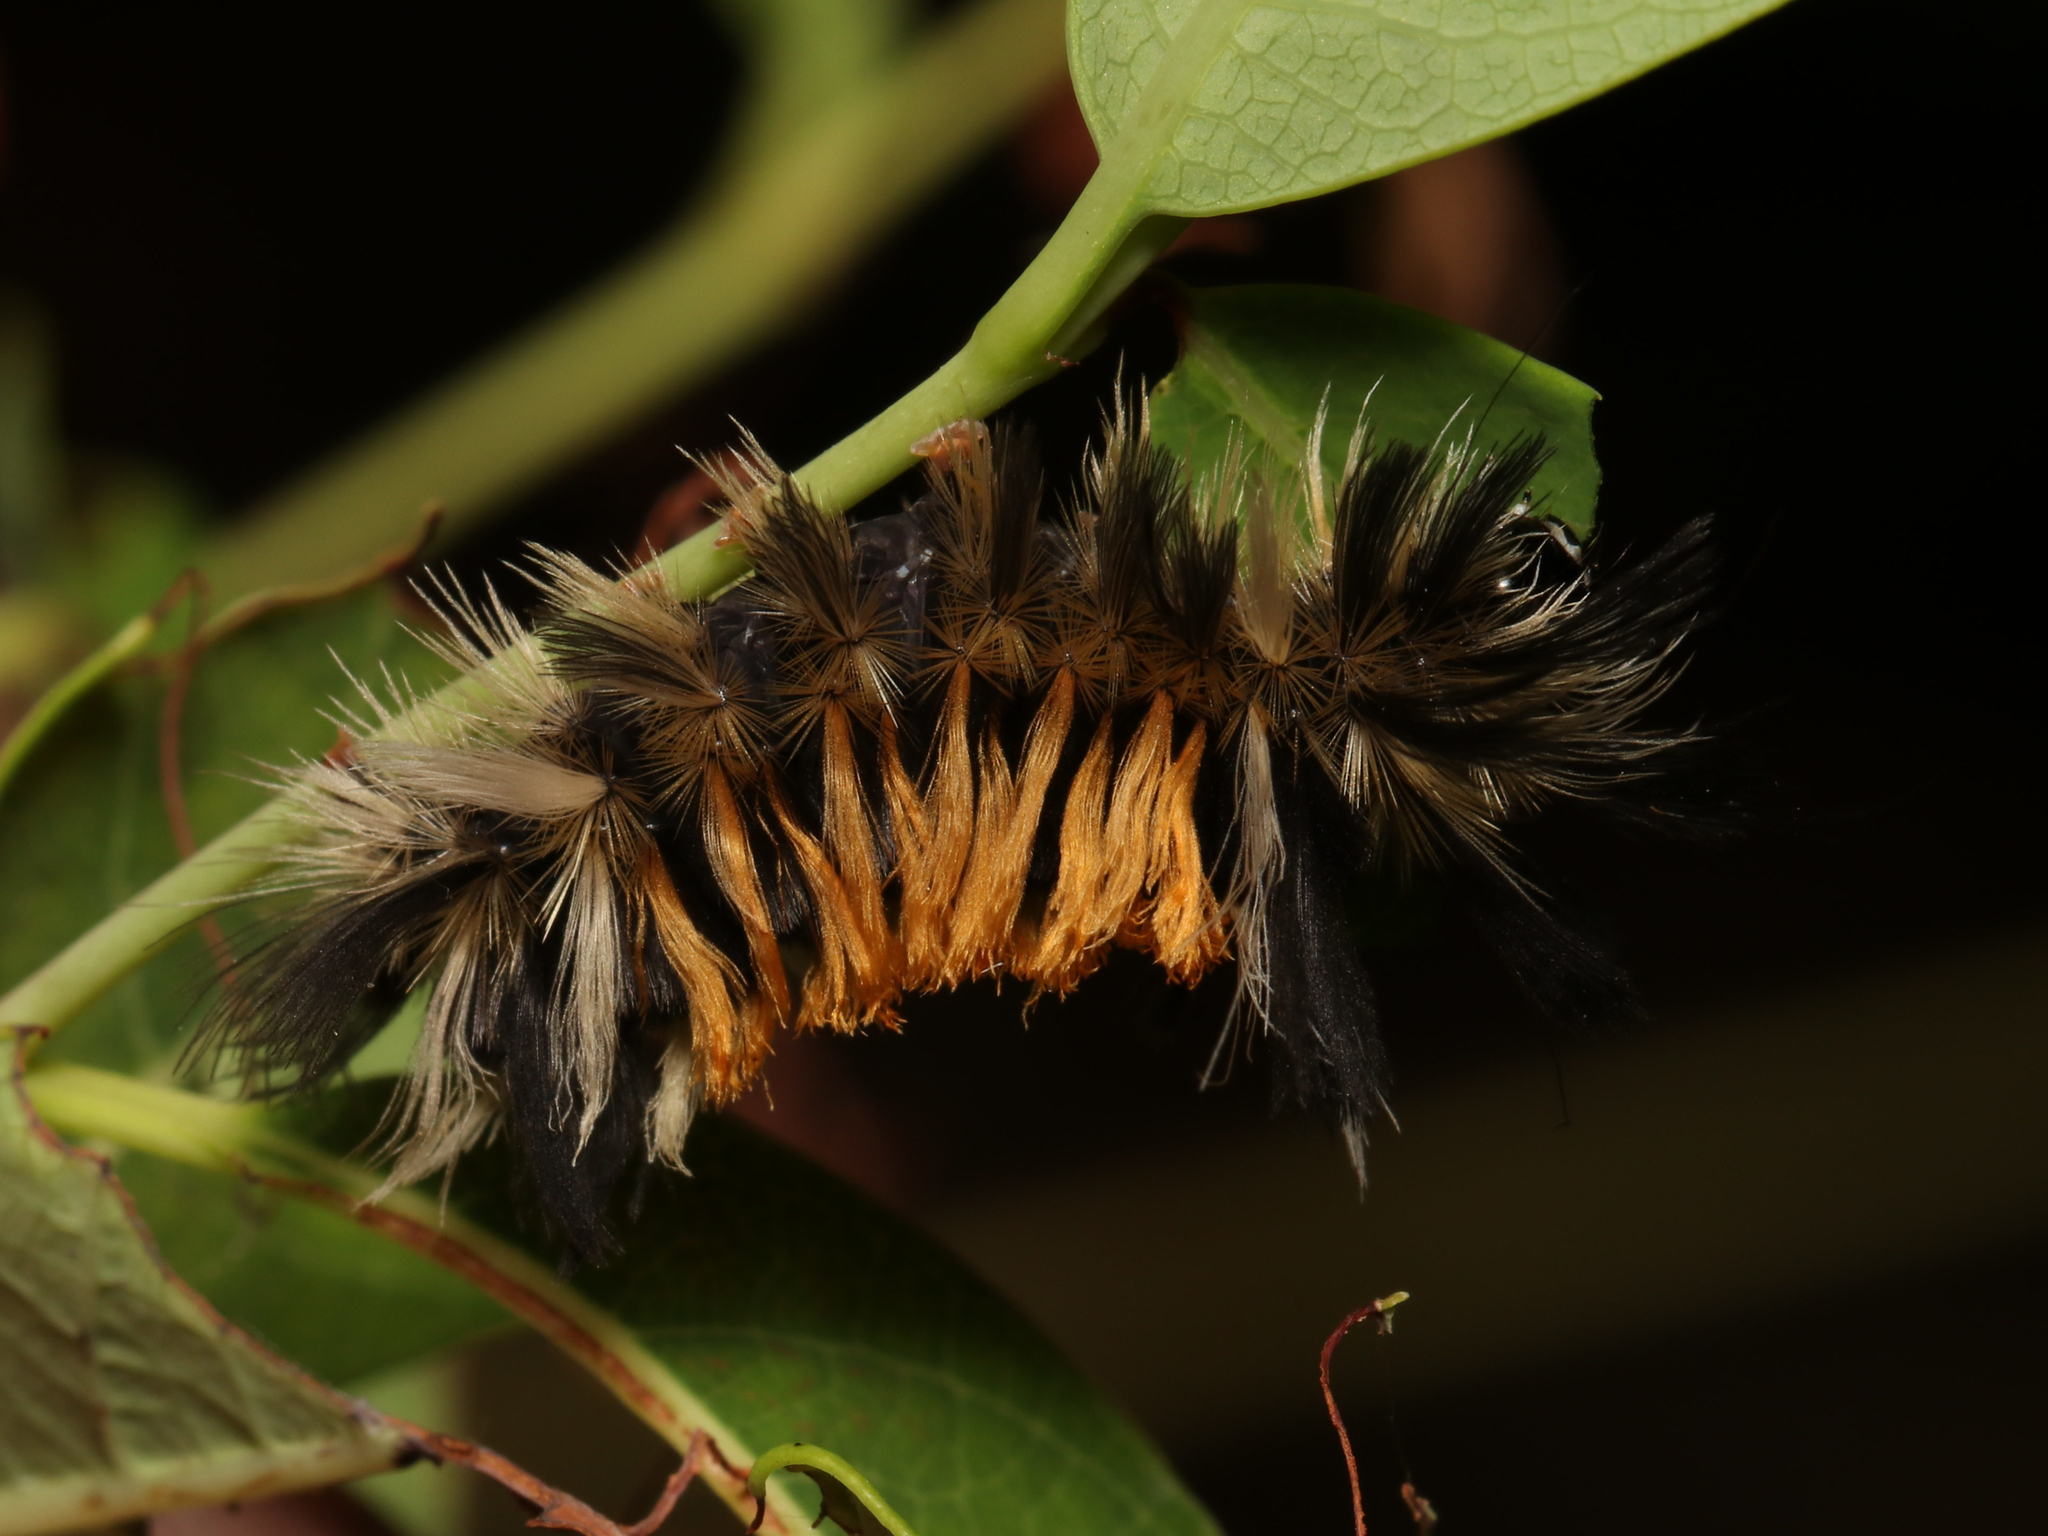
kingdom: Animalia
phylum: Arthropoda
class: Insecta
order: Lepidoptera
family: Erebidae
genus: Euchaetes
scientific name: Euchaetes egle
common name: Milkweed tussock moth
